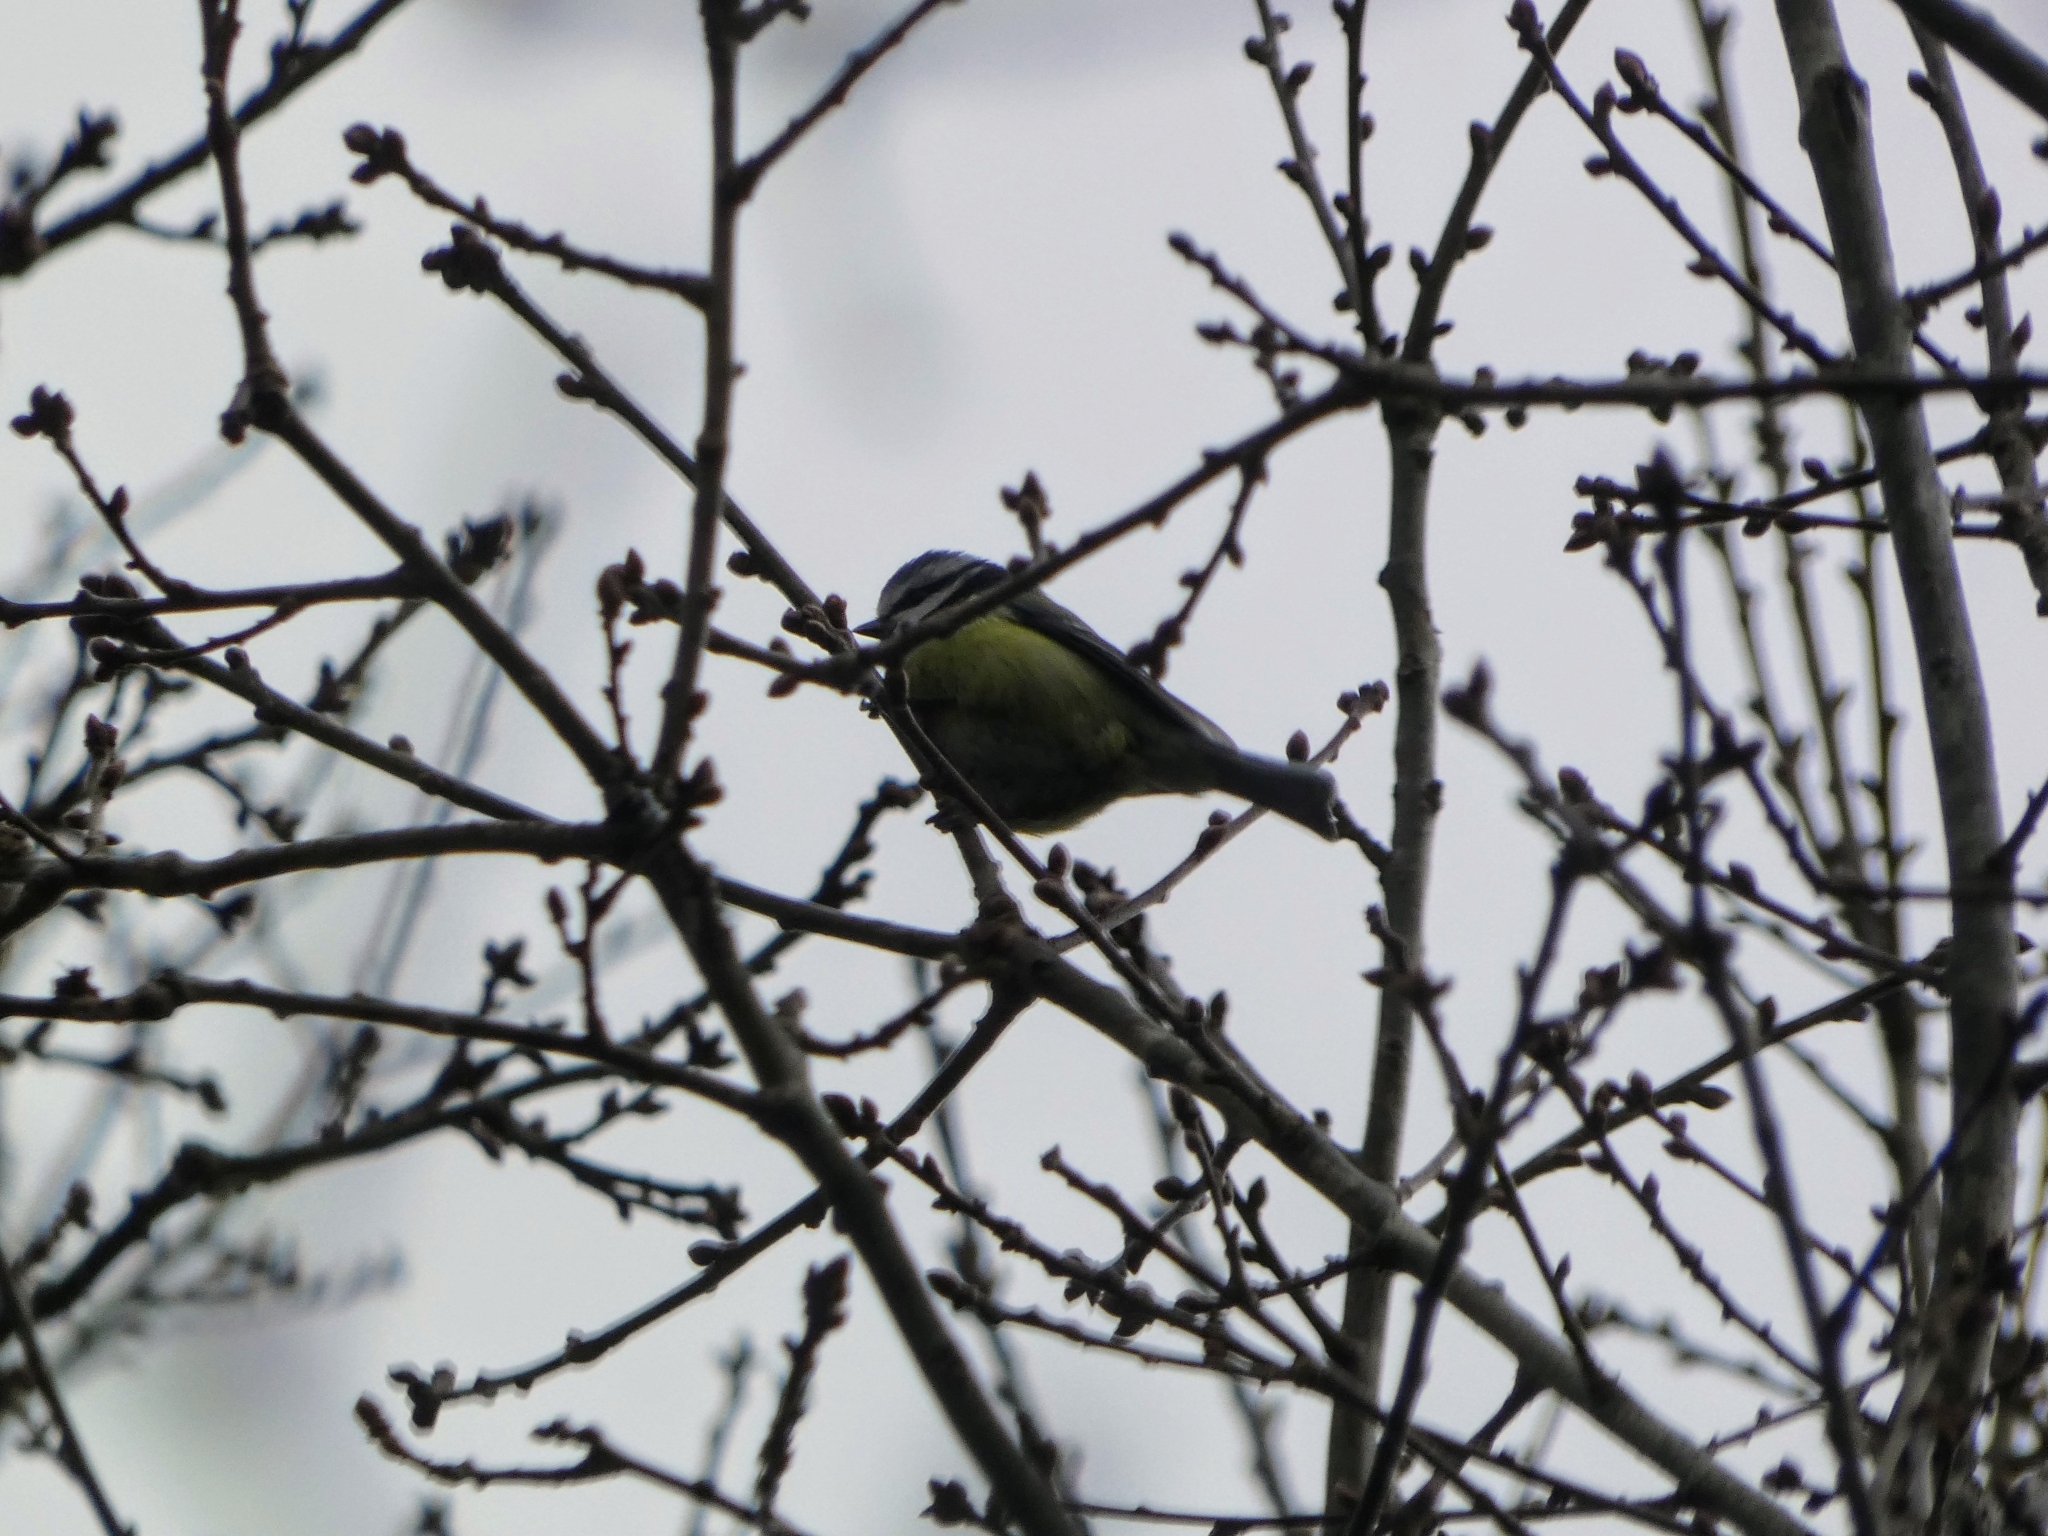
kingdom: Animalia
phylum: Chordata
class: Aves
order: Passeriformes
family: Paridae
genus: Cyanistes
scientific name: Cyanistes caeruleus
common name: Eurasian blue tit
